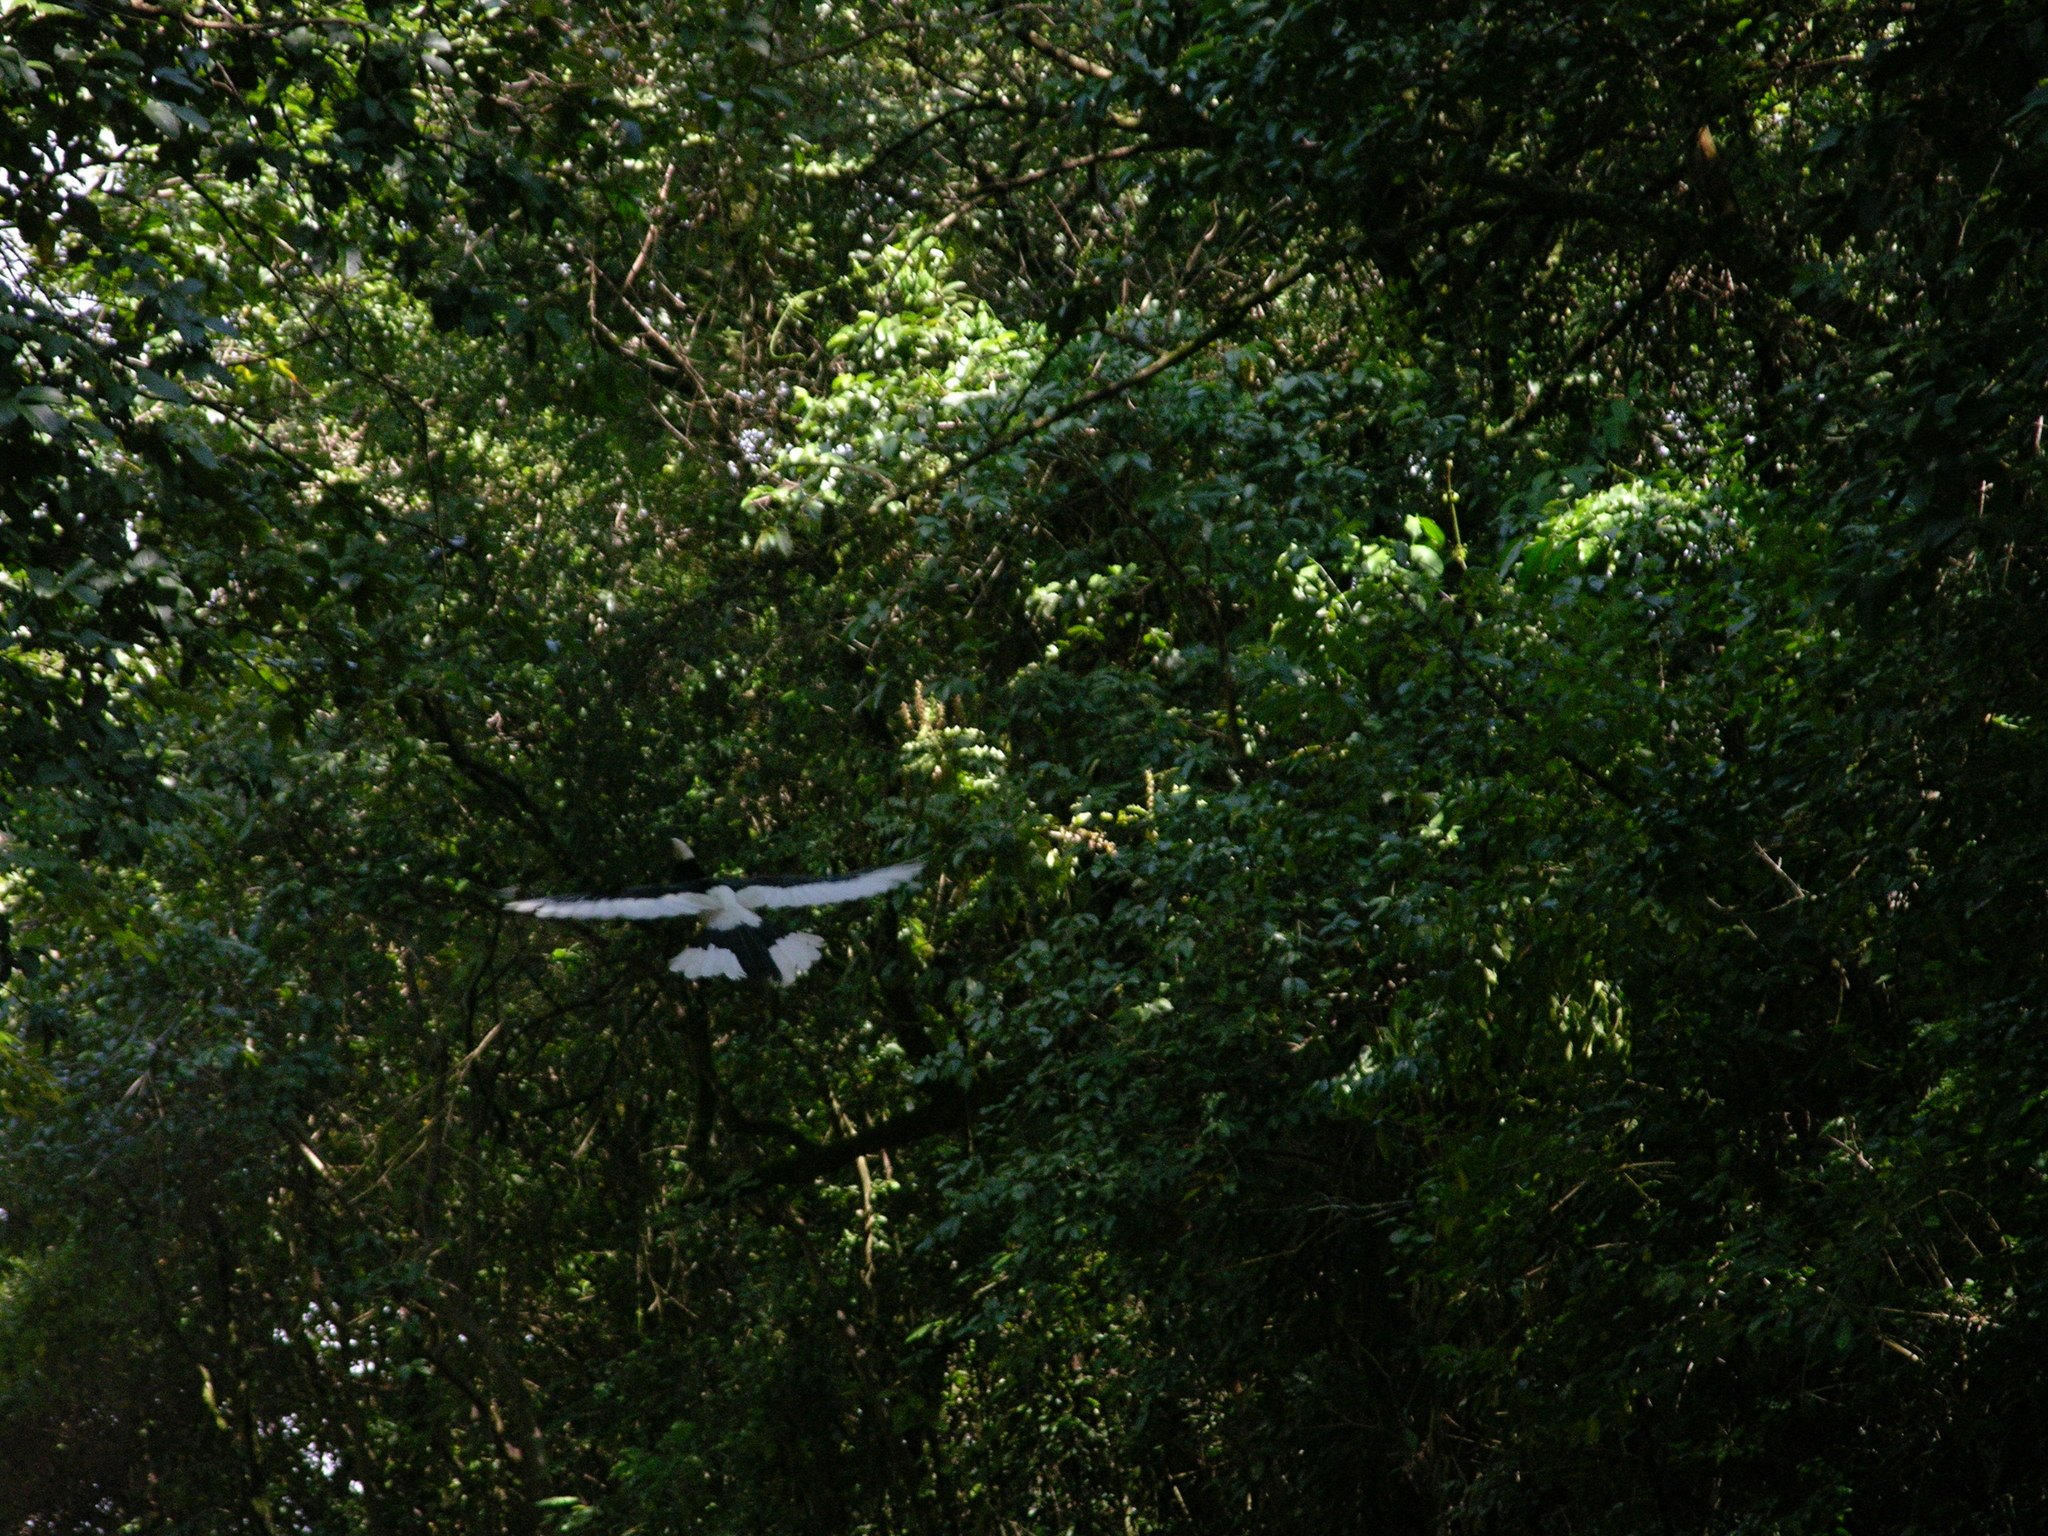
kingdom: Animalia
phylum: Chordata
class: Aves
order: Bucerotiformes
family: Bucerotidae
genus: Bycanistes
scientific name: Bycanistes subcylindricus
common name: Black-and-white-casqued hornbill
